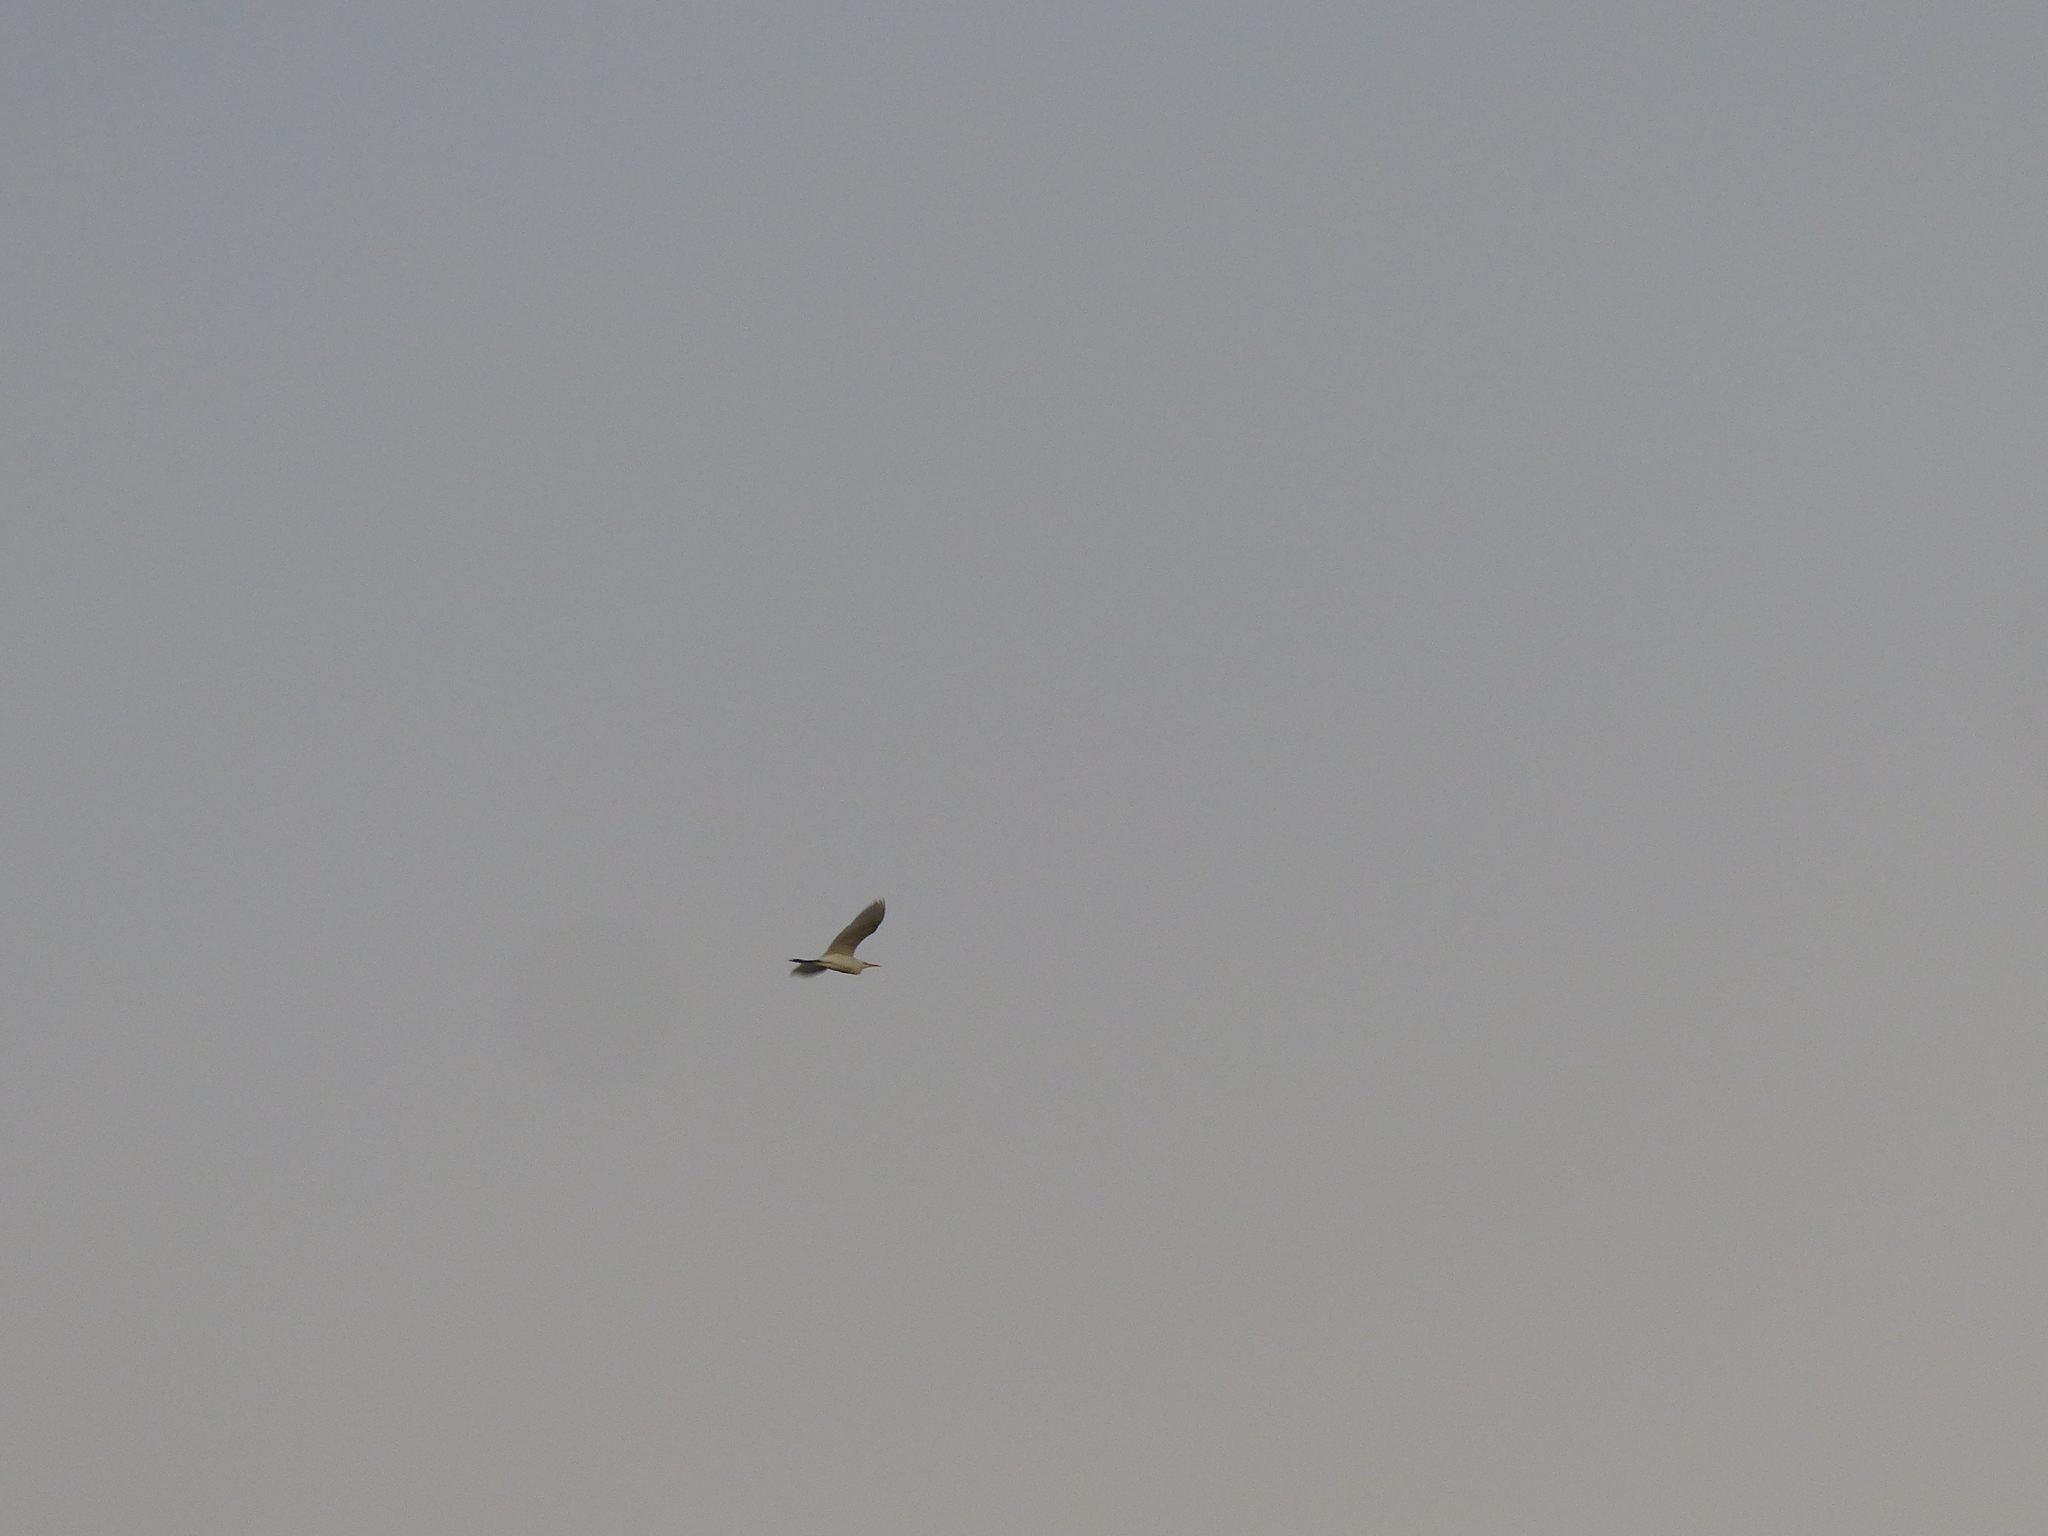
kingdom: Animalia
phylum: Chordata
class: Aves
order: Pelecaniformes
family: Ardeidae
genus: Ardea
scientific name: Ardea alba
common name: Great egret
